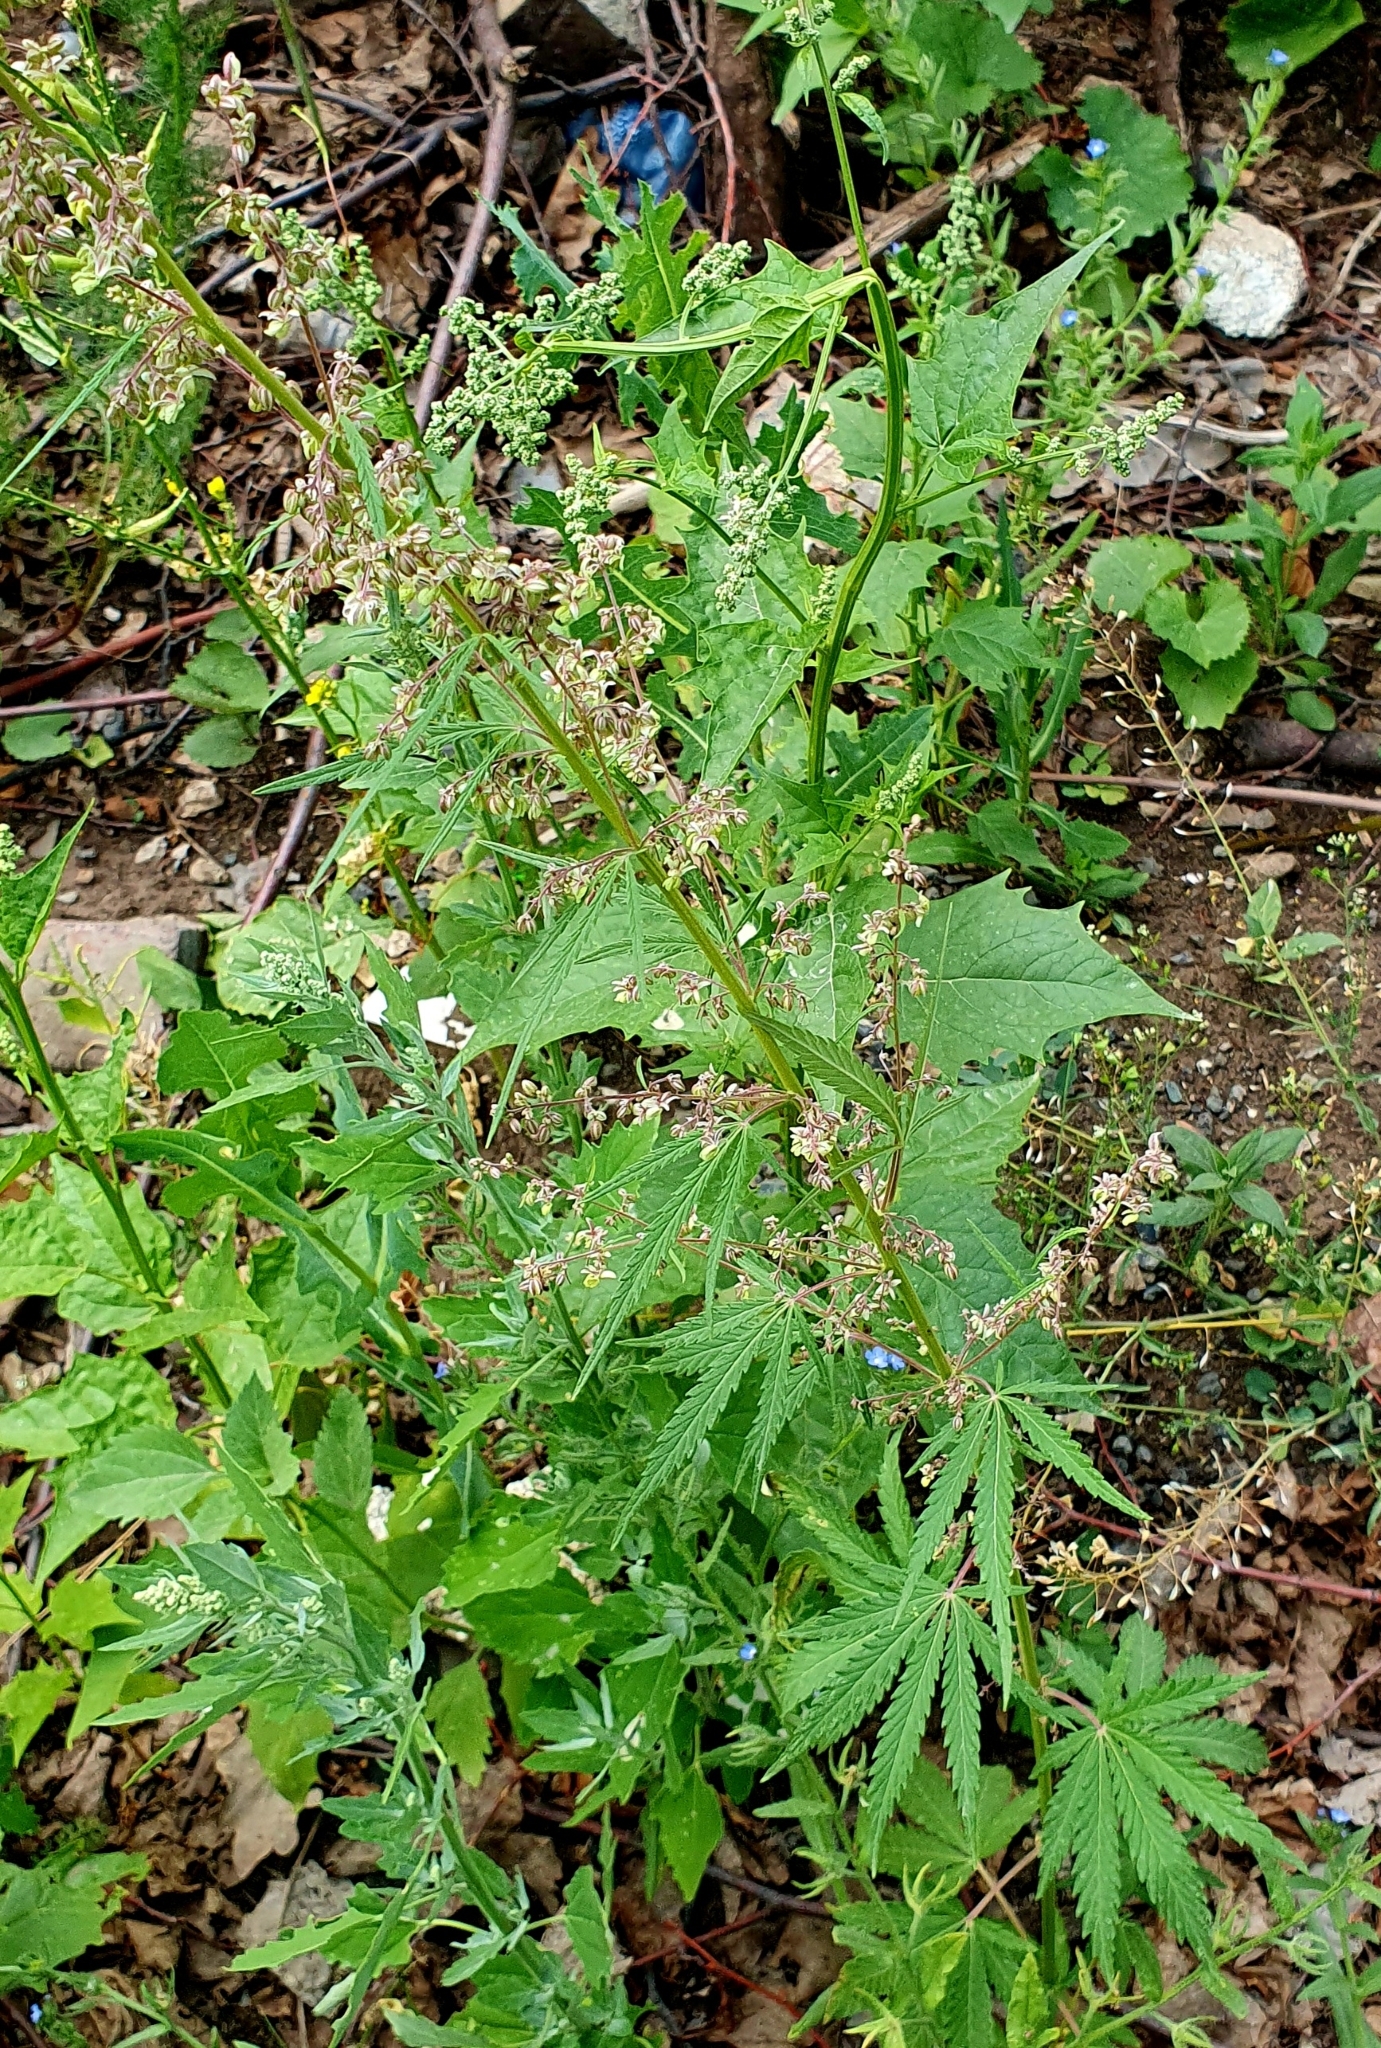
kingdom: Plantae
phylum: Tracheophyta
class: Magnoliopsida
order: Rosales
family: Cannabaceae
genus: Cannabis
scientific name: Cannabis sativa
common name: Hemp
